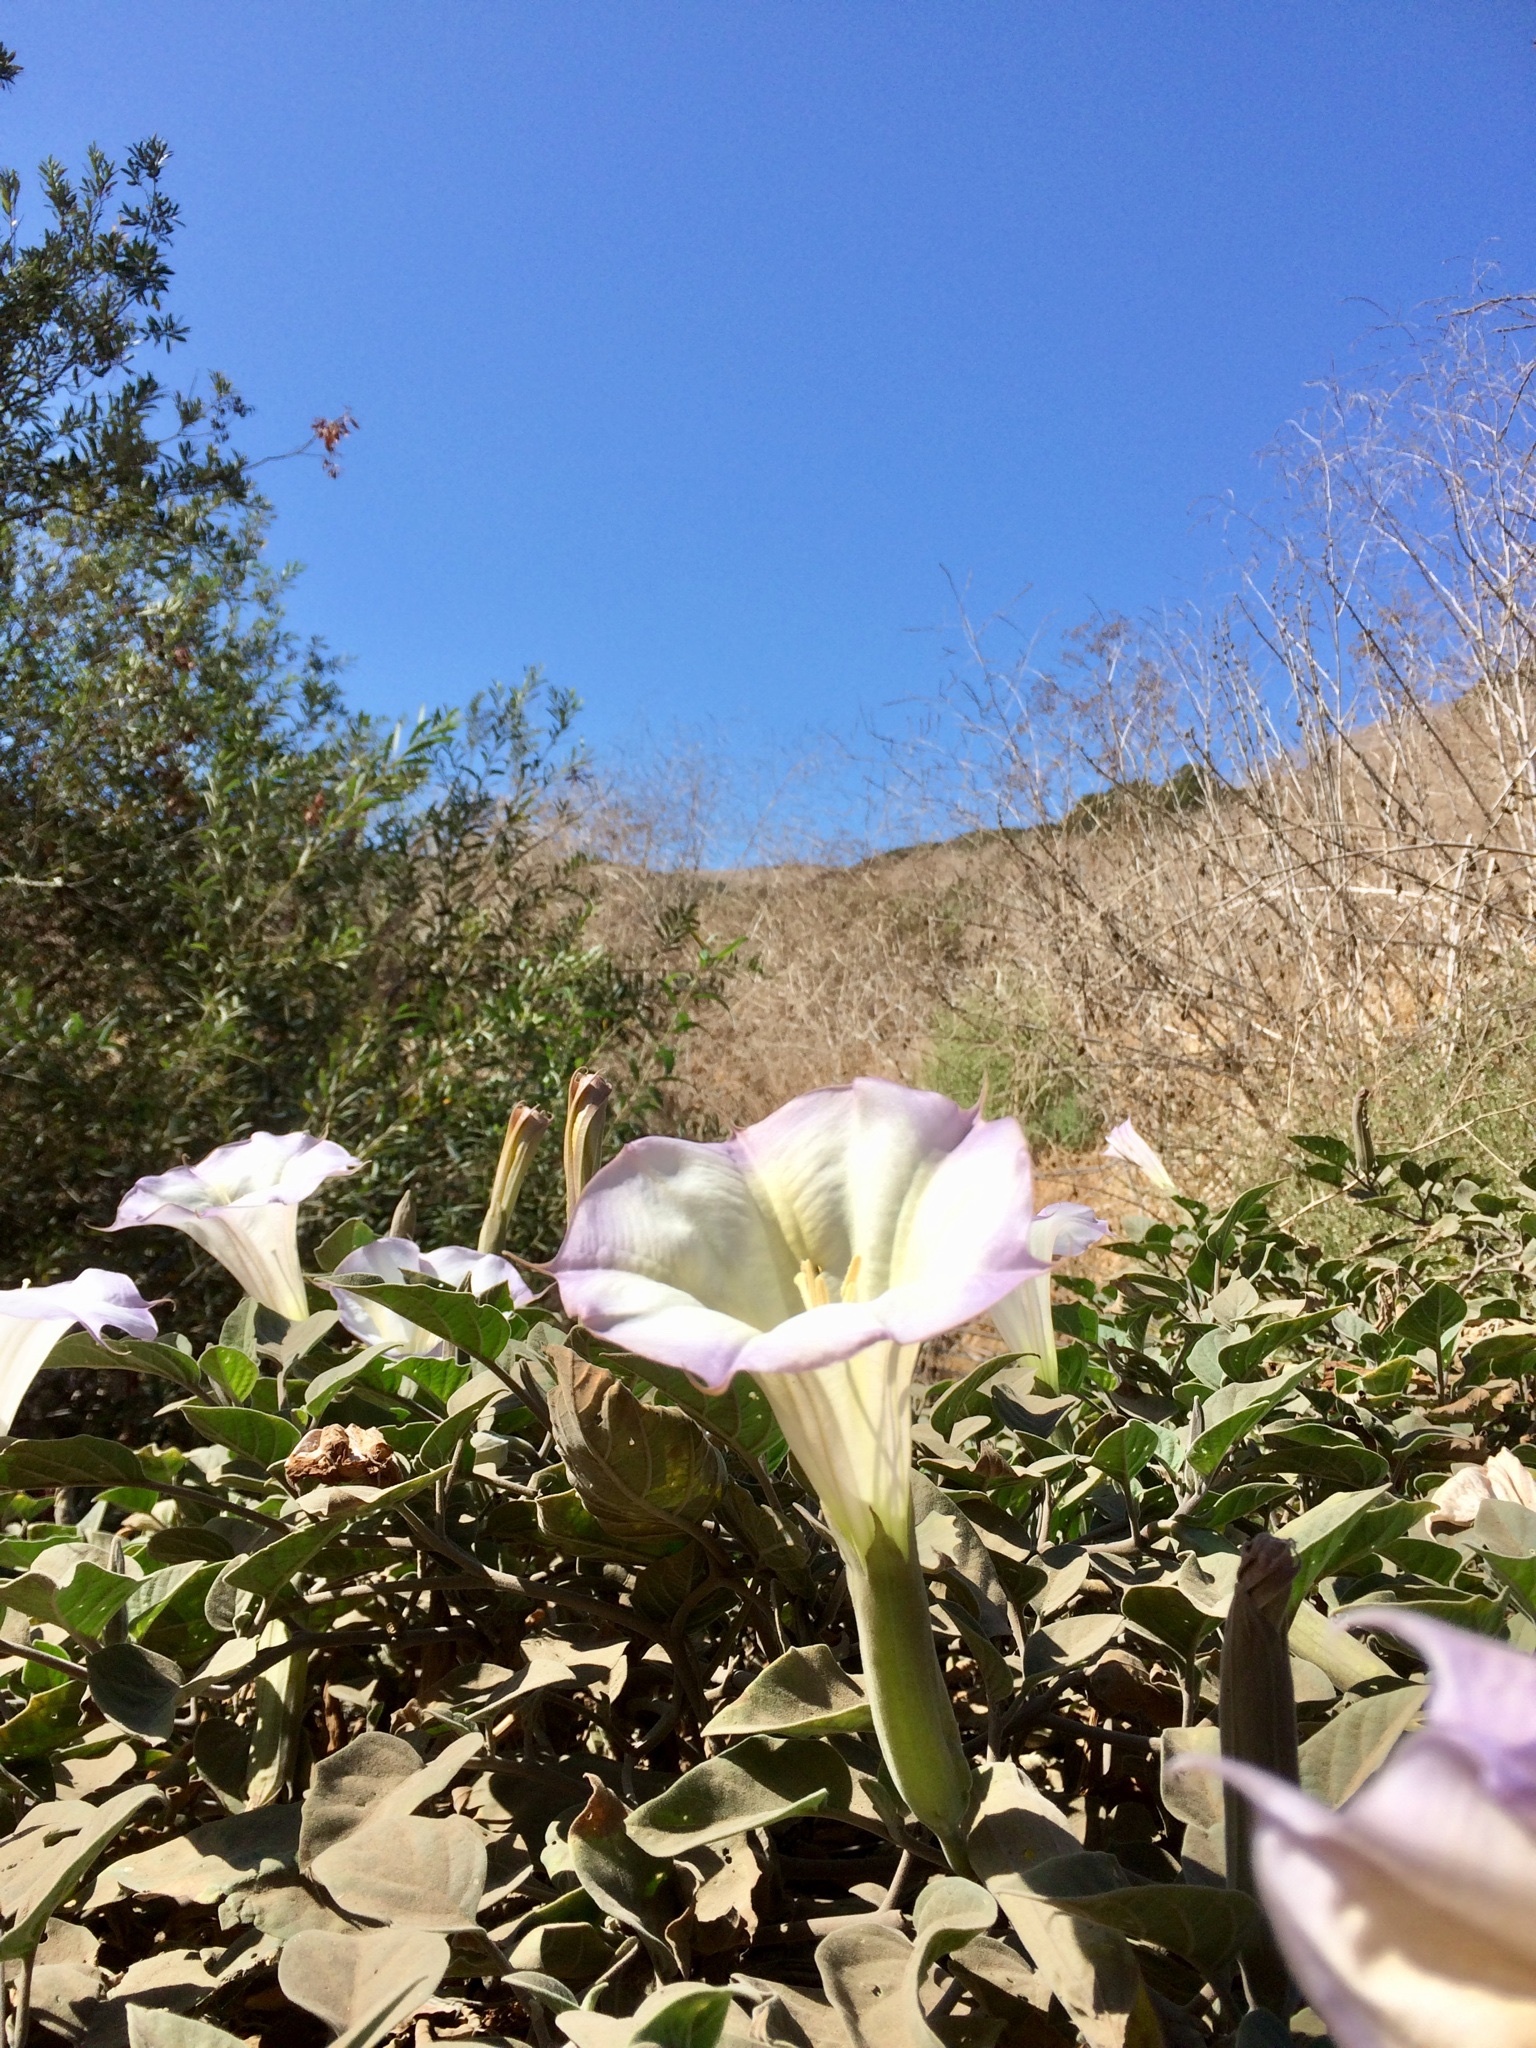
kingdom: Plantae
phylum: Tracheophyta
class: Magnoliopsida
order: Solanales
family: Solanaceae
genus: Datura
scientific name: Datura wrightii
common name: Sacred thorn-apple
